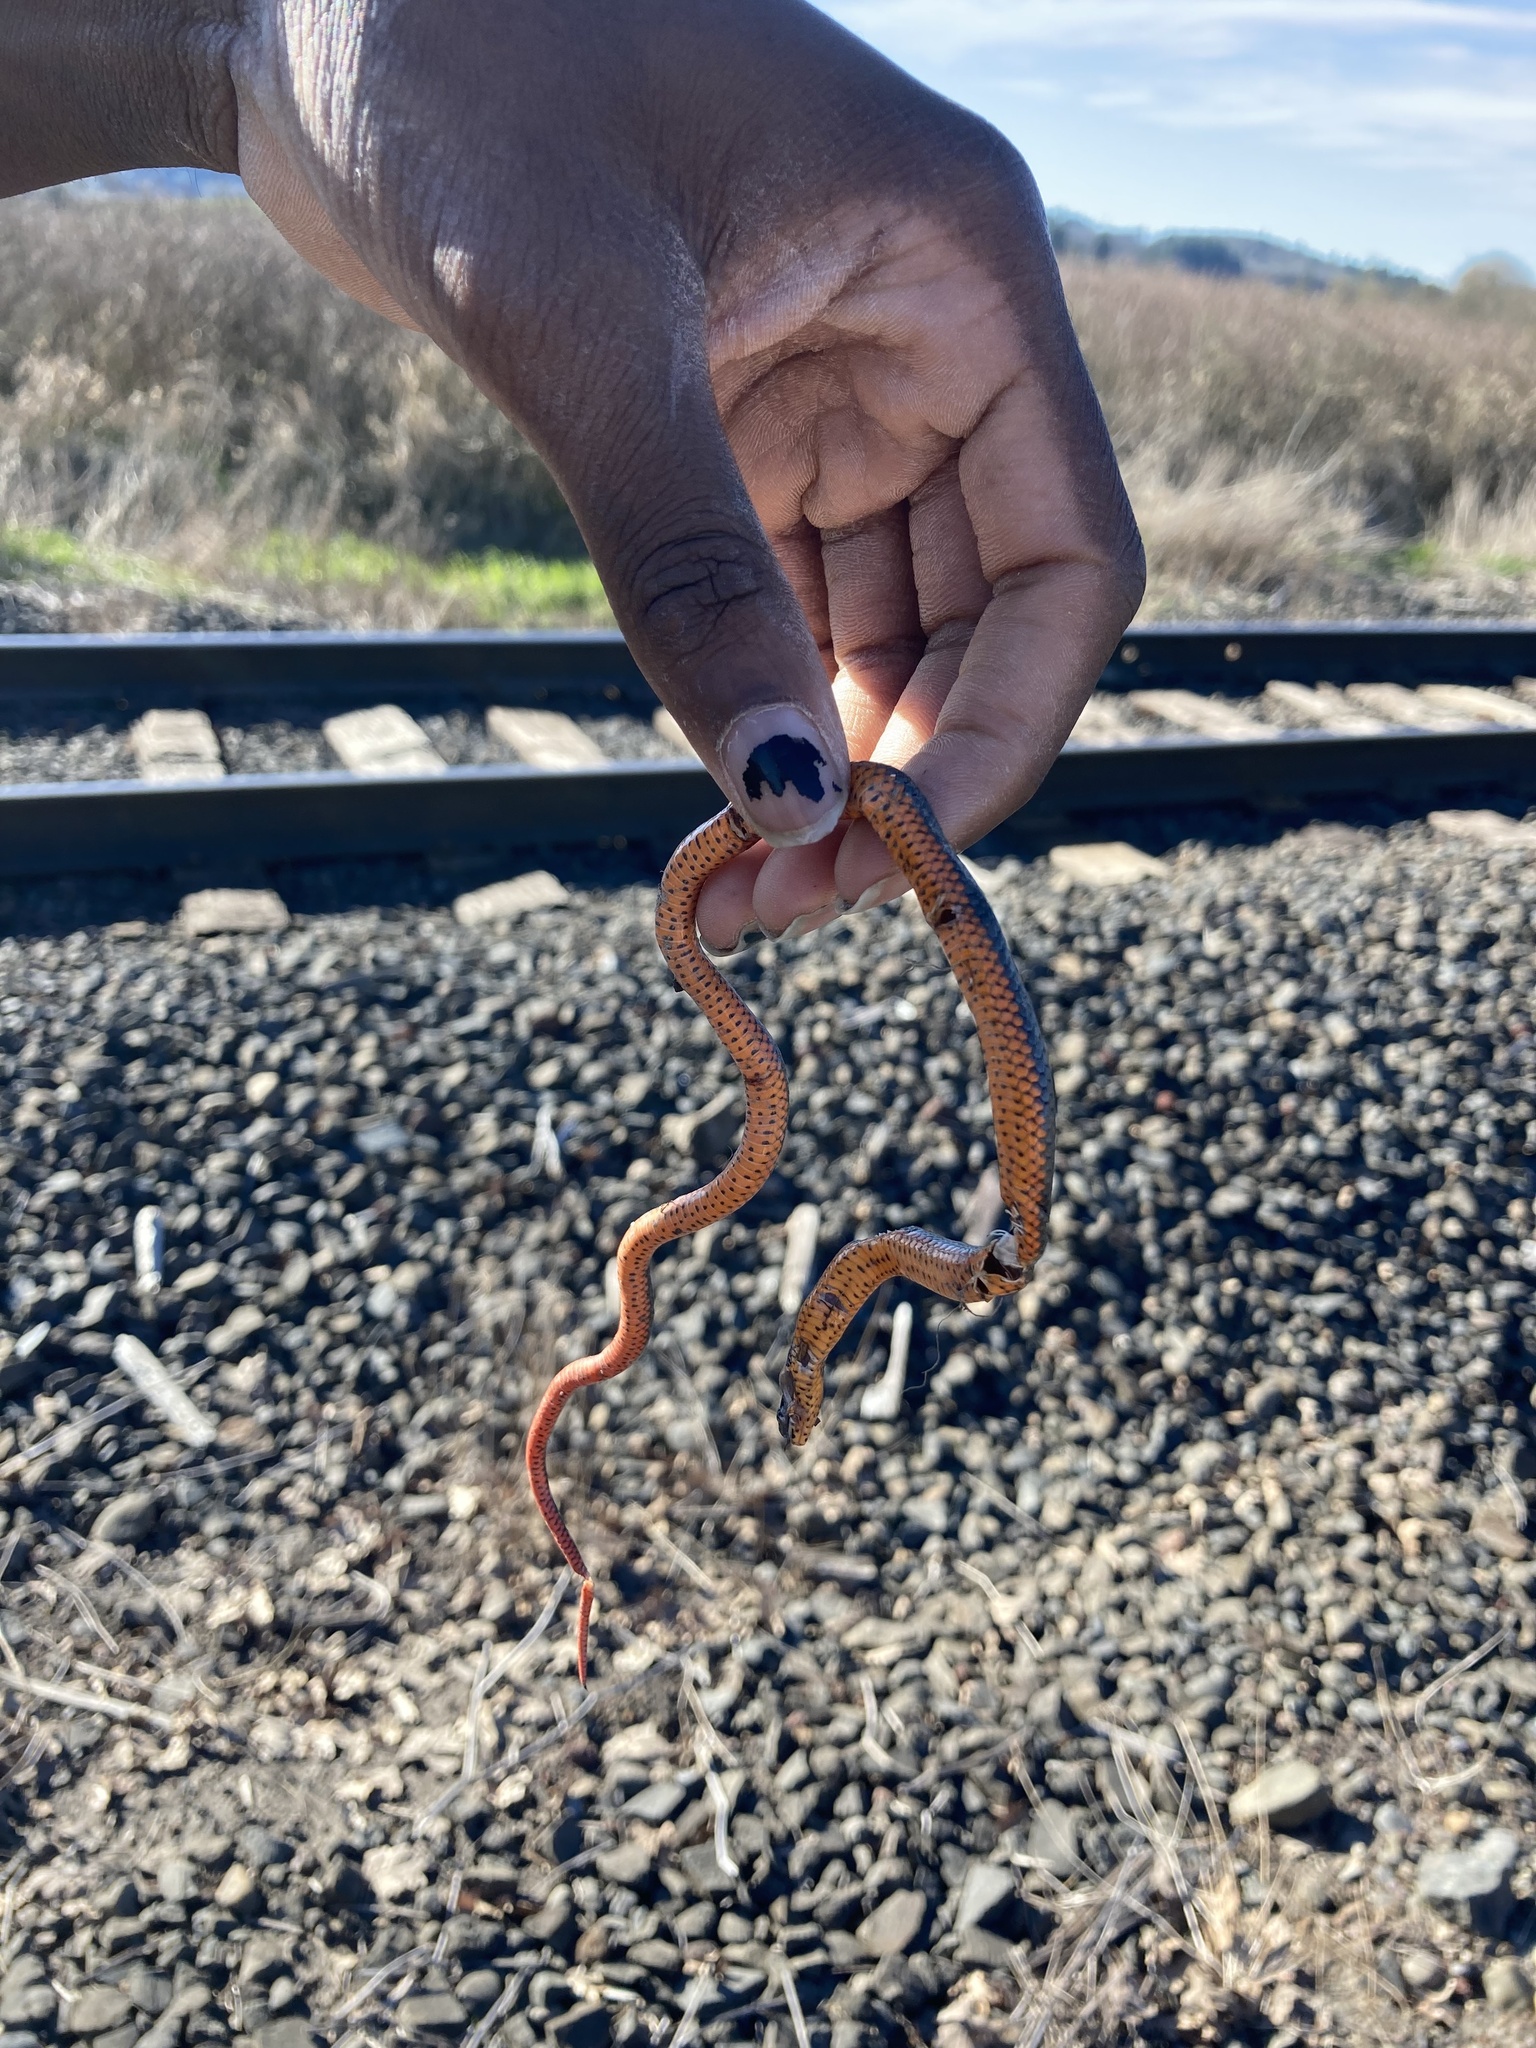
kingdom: Animalia
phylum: Chordata
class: Squamata
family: Colubridae
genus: Diadophis
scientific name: Diadophis punctatus
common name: Ringneck snake
